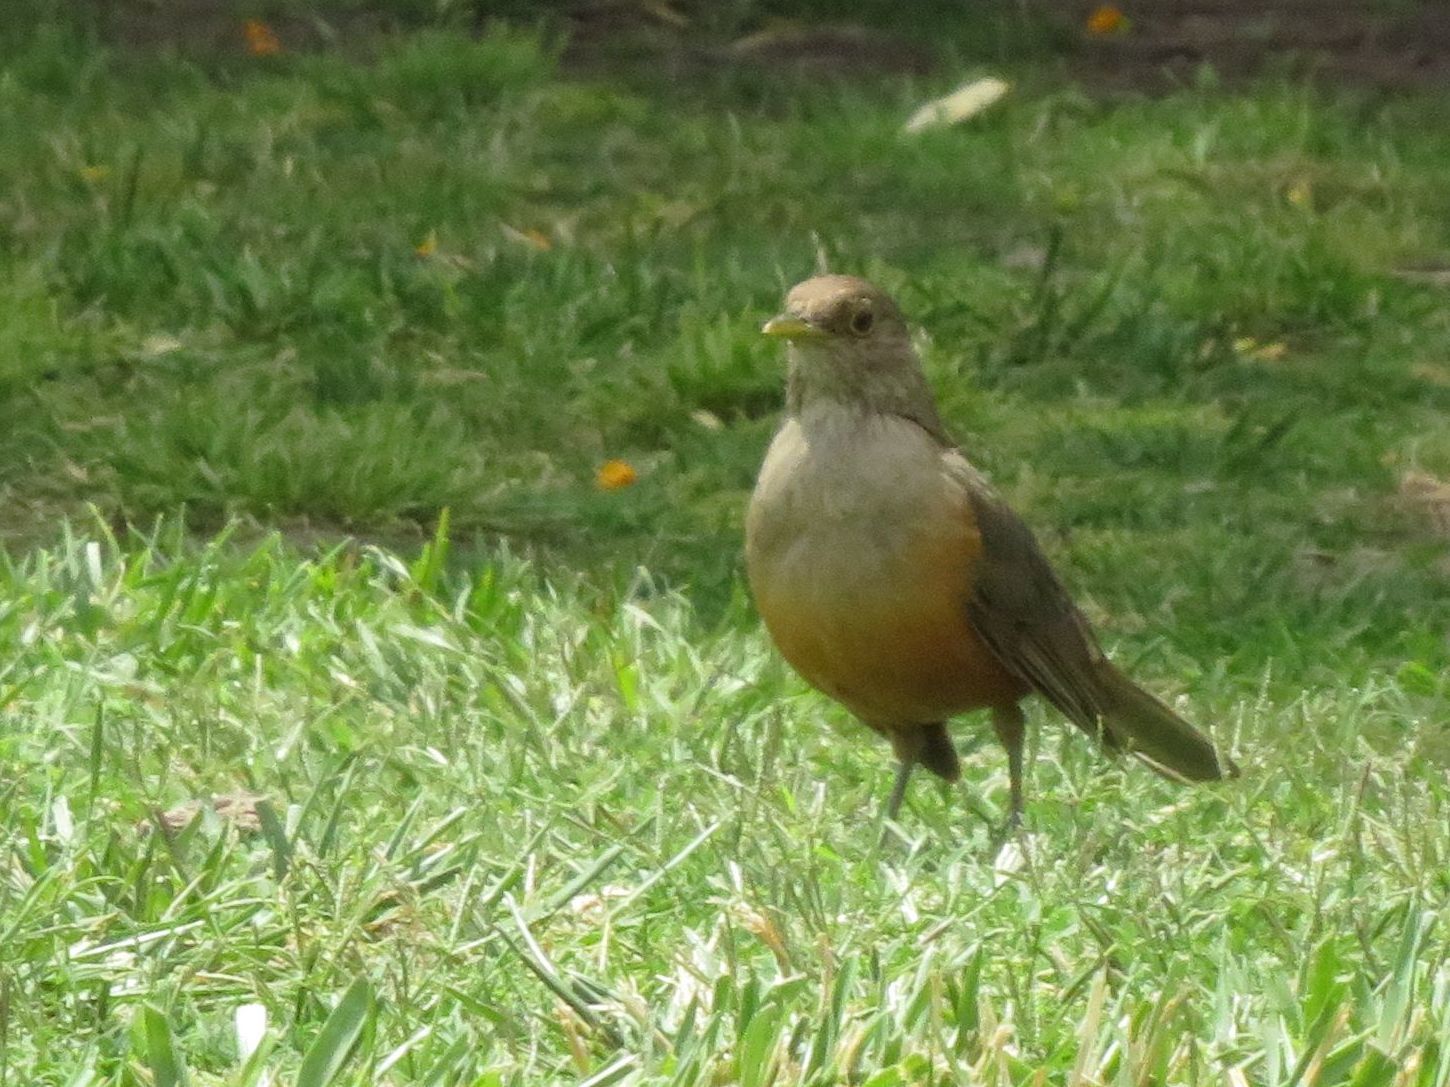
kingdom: Animalia
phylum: Chordata
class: Aves
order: Passeriformes
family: Turdidae
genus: Turdus
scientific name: Turdus rufiventris
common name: Rufous-bellied thrush
